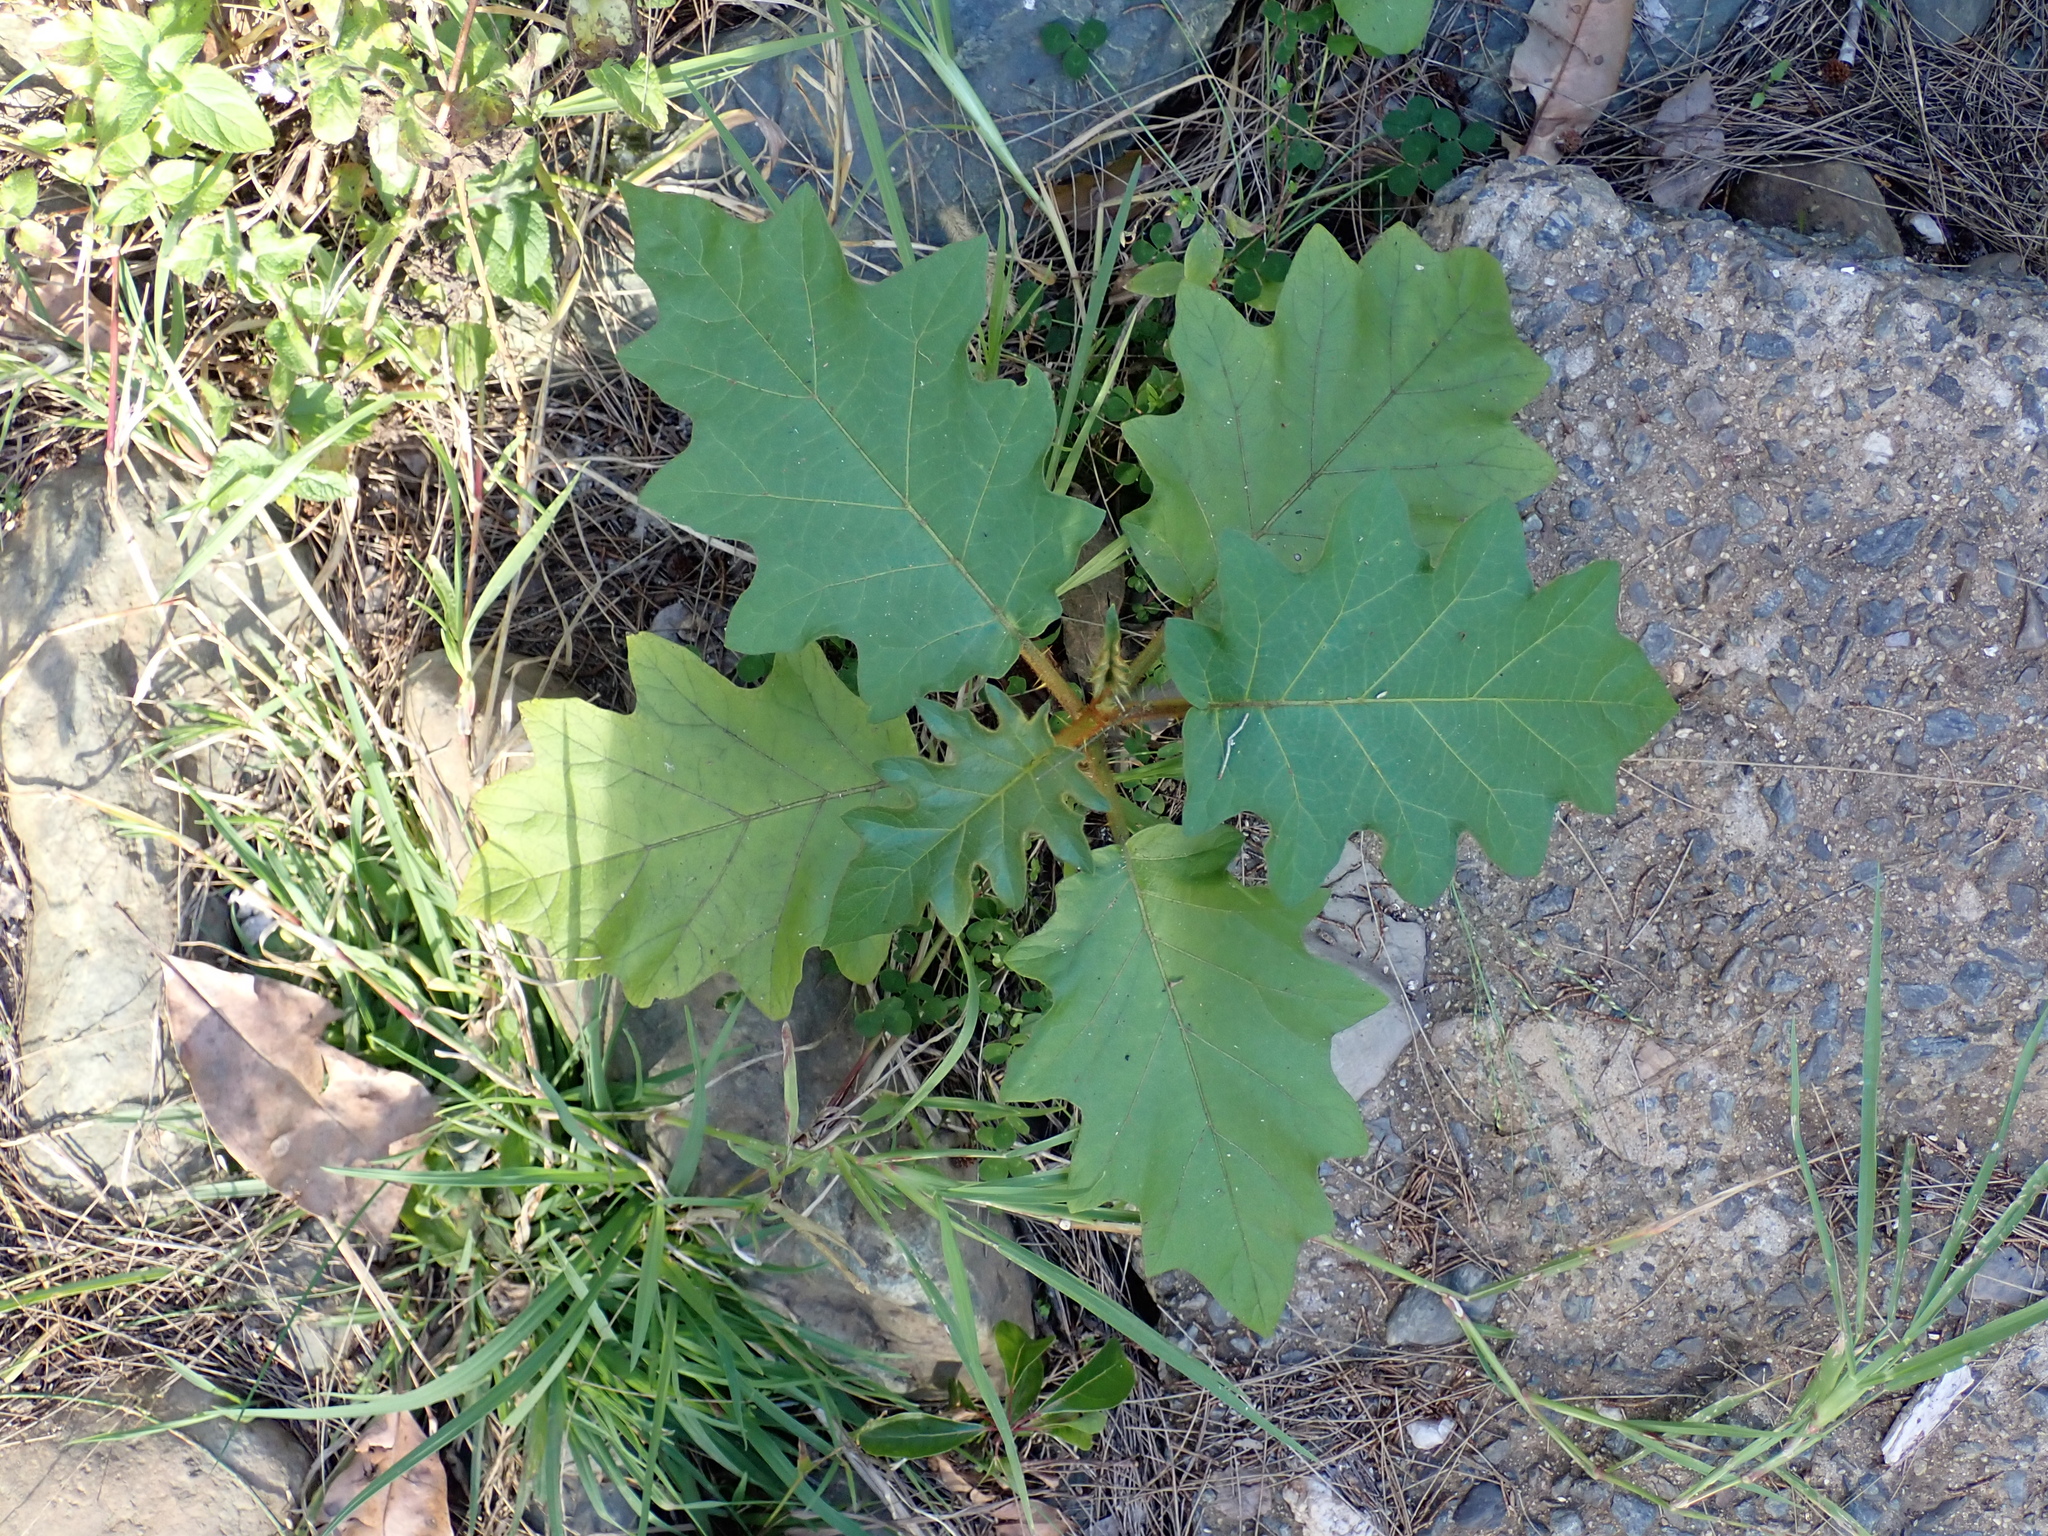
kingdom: Plantae
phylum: Tracheophyta
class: Magnoliopsida
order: Solanales
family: Solanaceae
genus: Solanum
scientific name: Solanum chrysotrichum
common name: Nightshade
